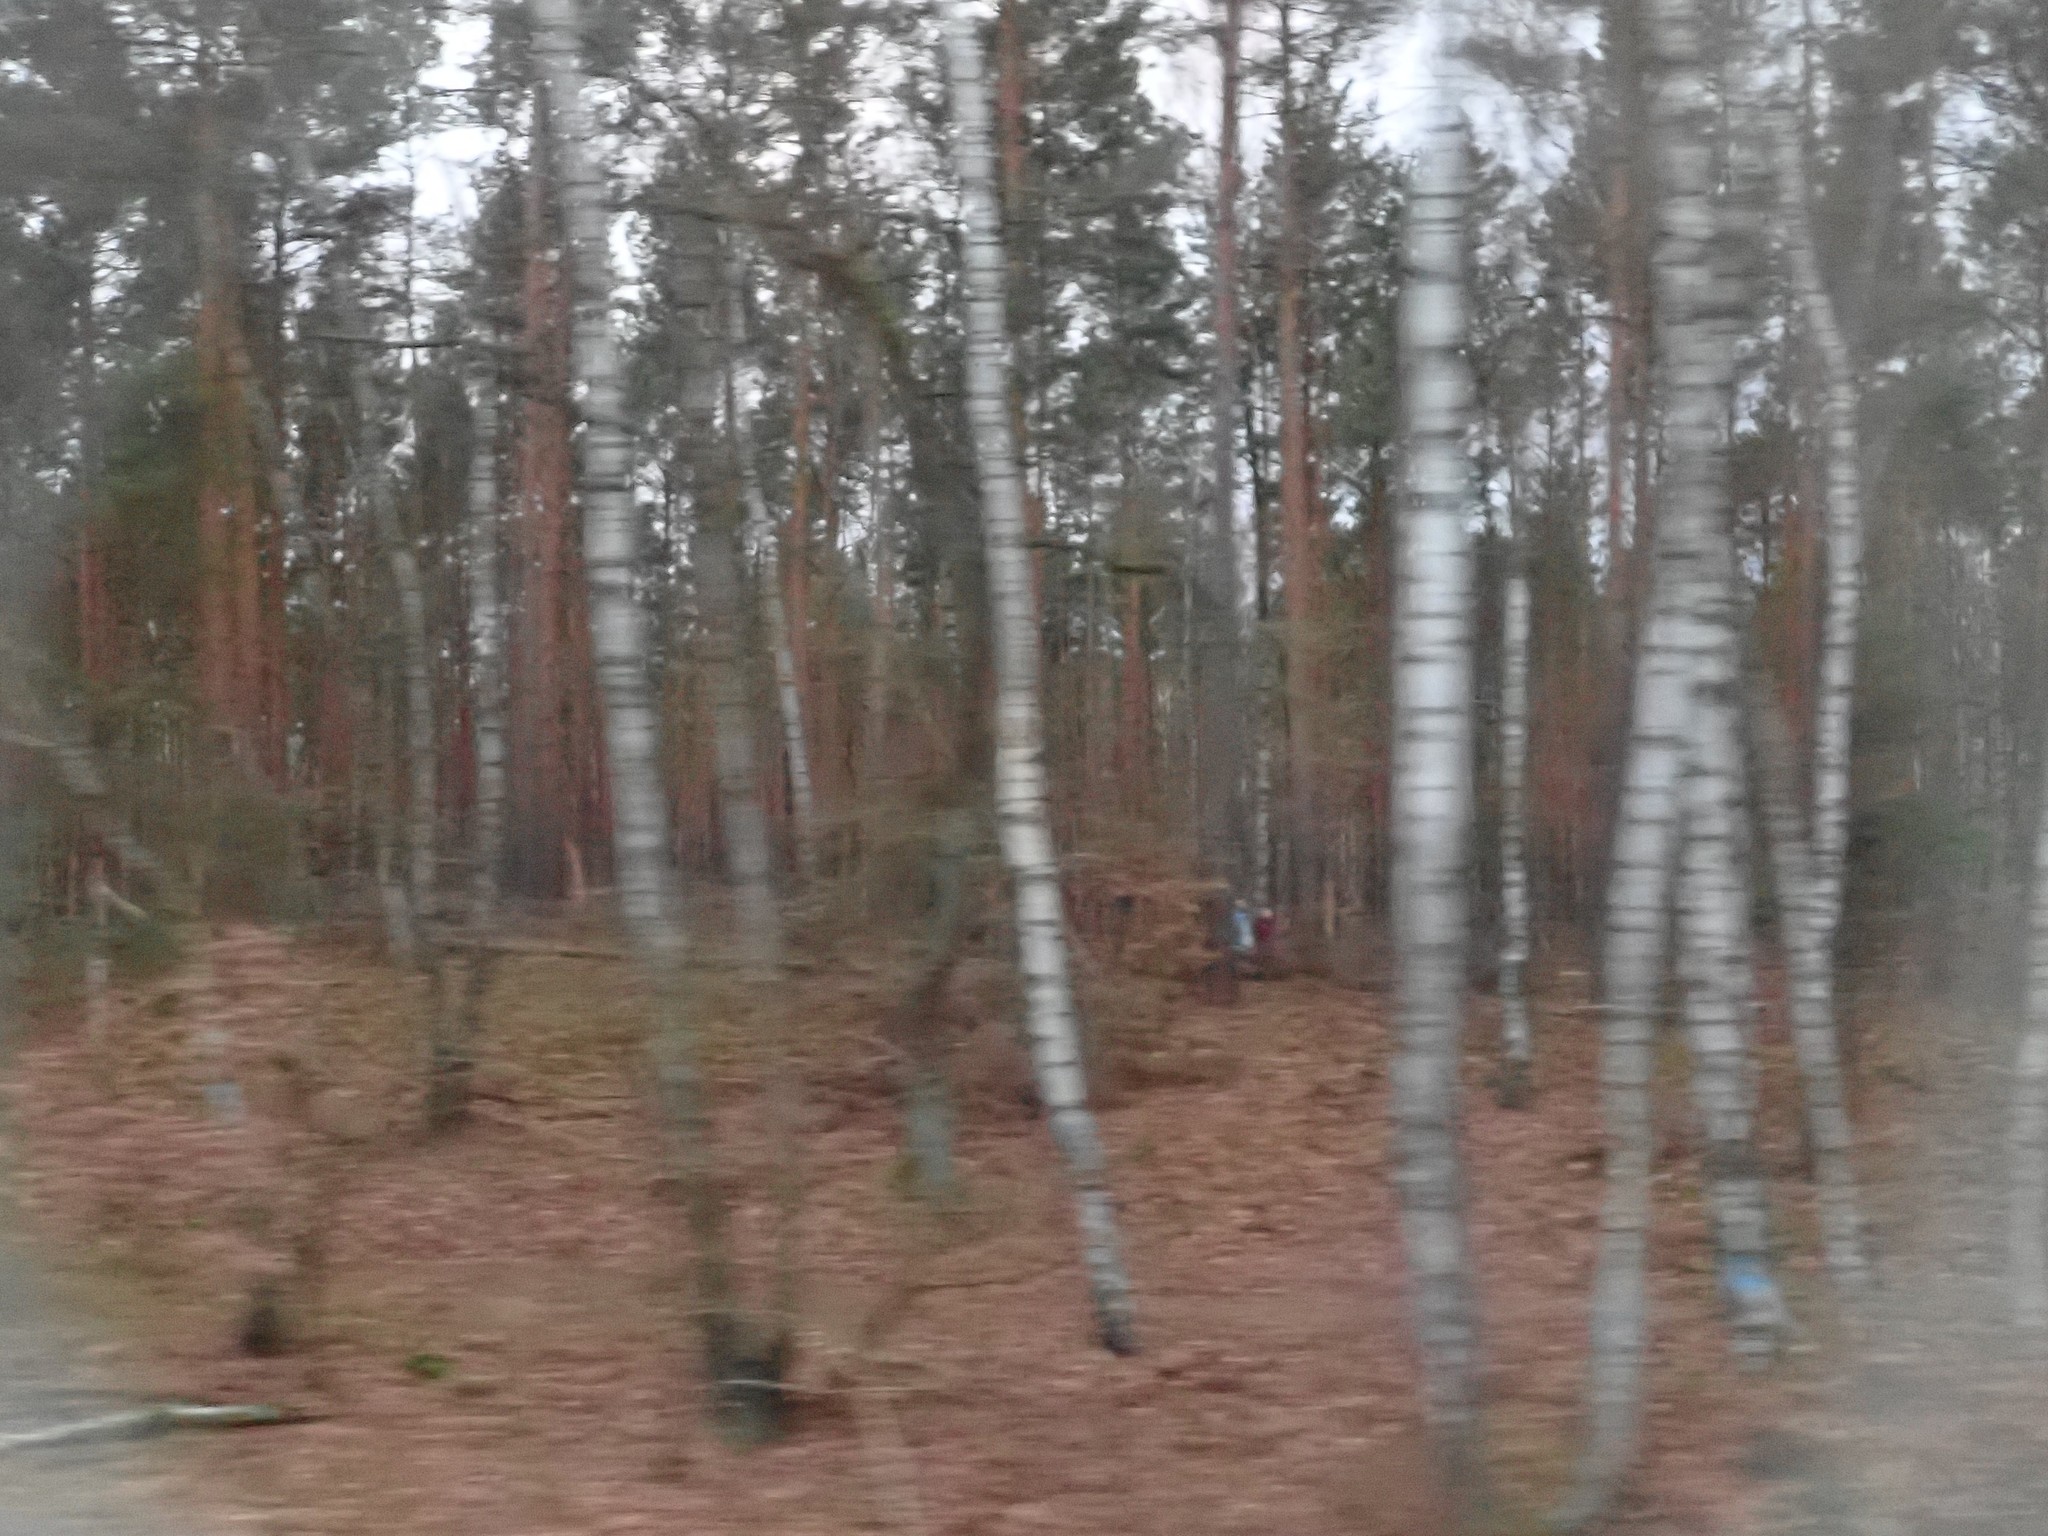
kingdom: Plantae
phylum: Tracheophyta
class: Magnoliopsida
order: Fagales
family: Betulaceae
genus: Betula
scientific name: Betula pendula
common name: Silver birch
